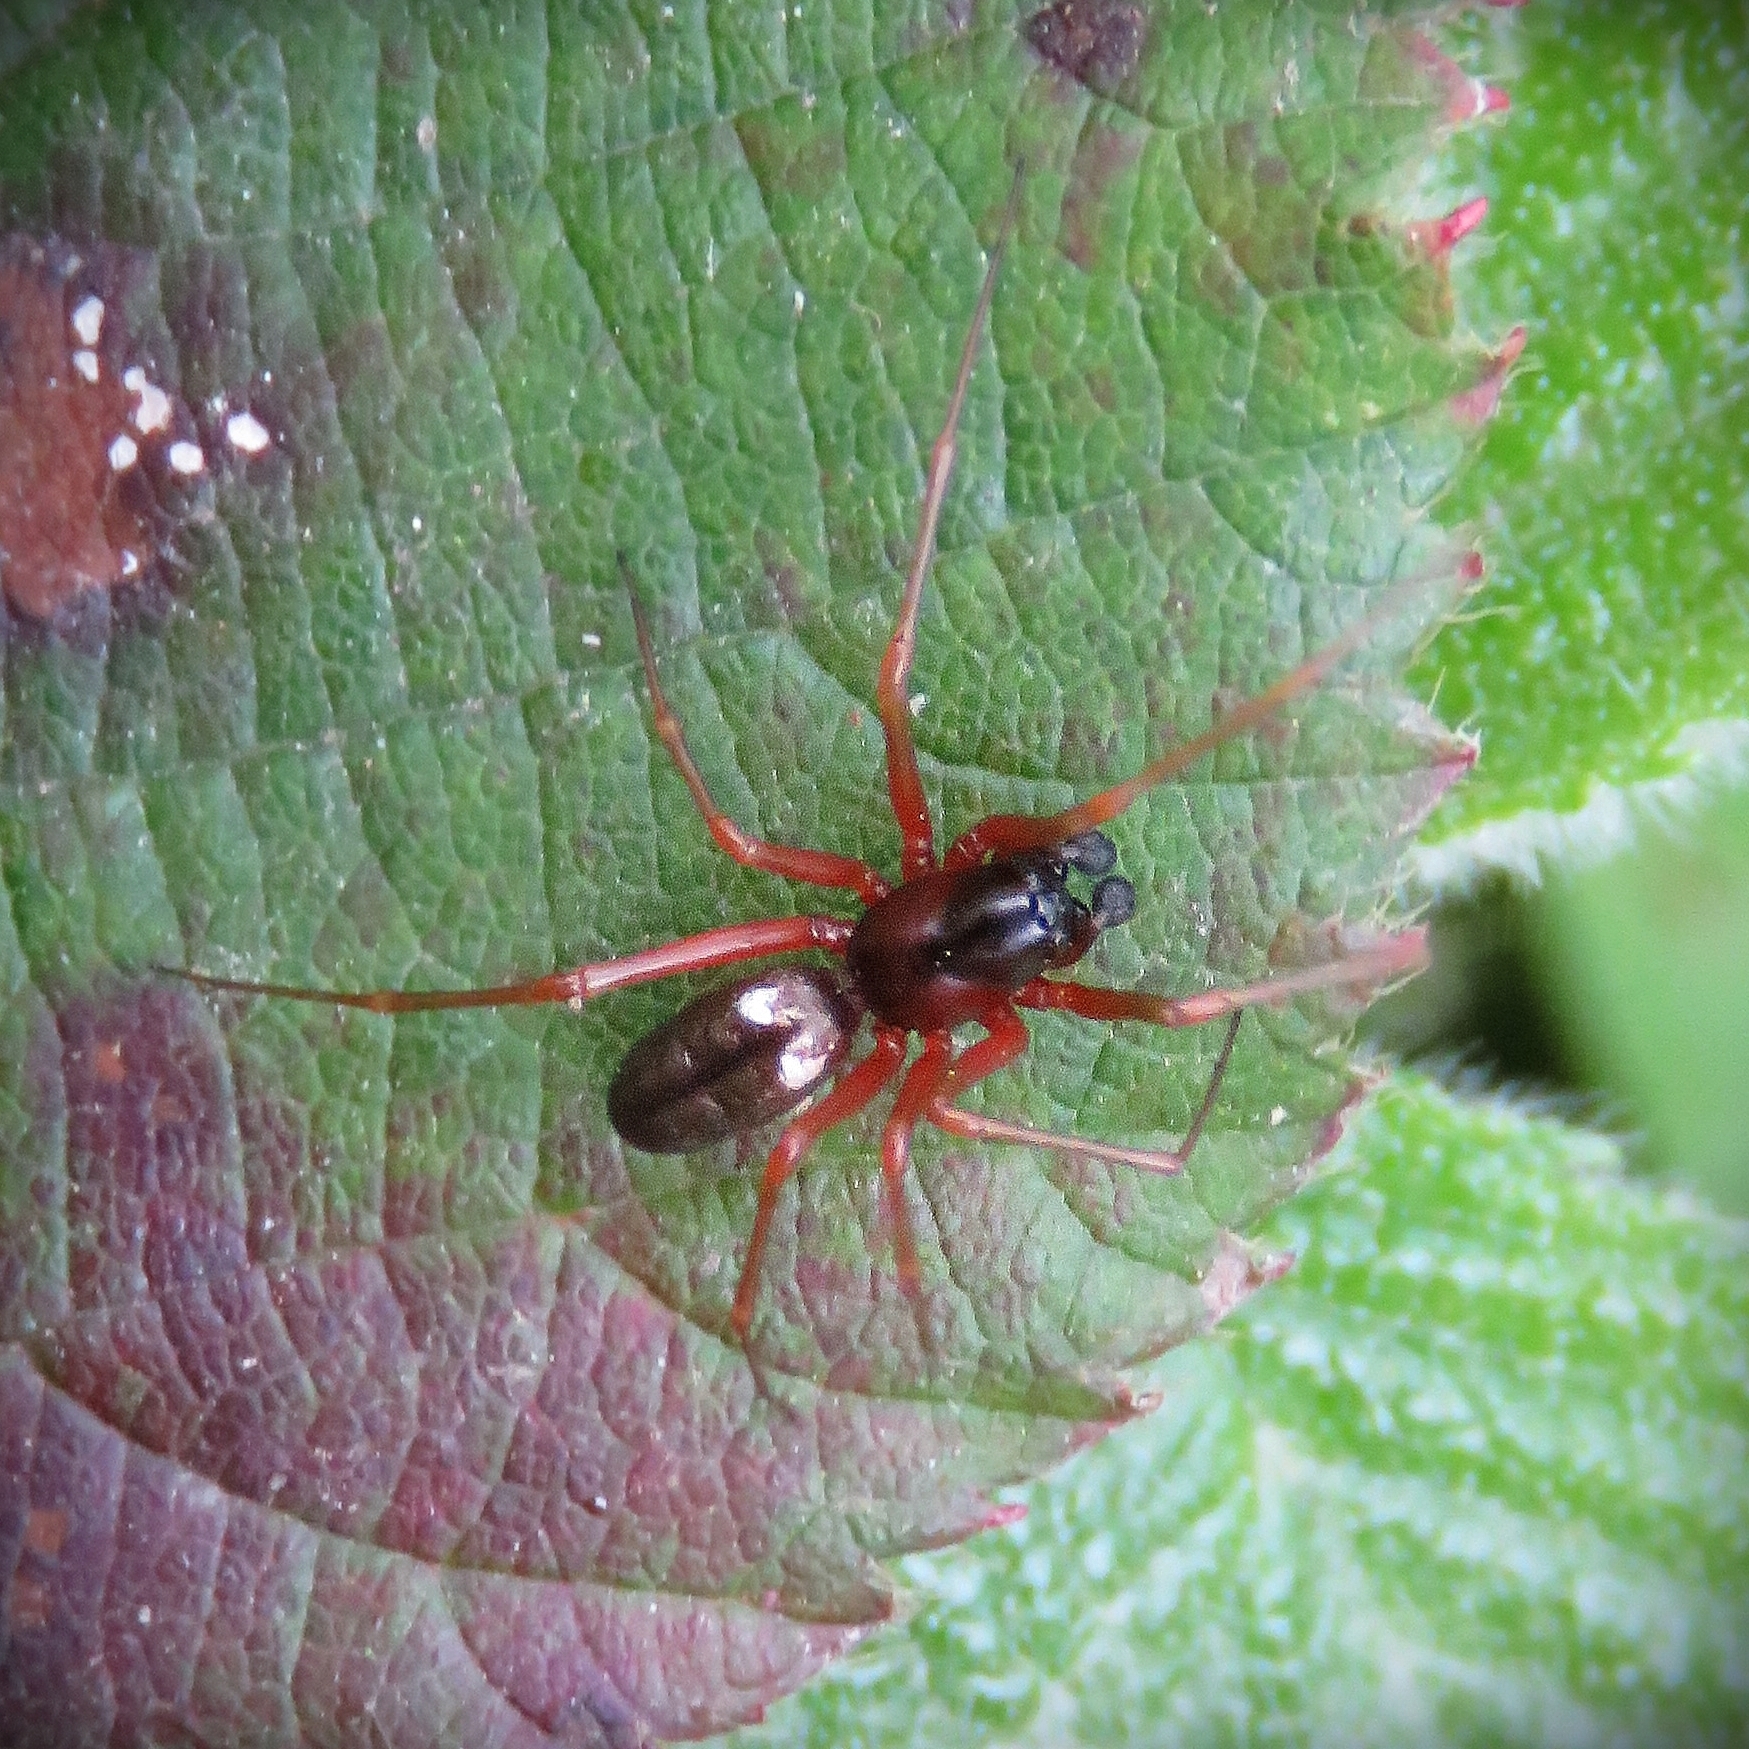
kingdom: Animalia
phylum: Arthropoda
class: Arachnida
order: Araneae
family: Linyphiidae
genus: Linyphia
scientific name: Linyphia hortensis
